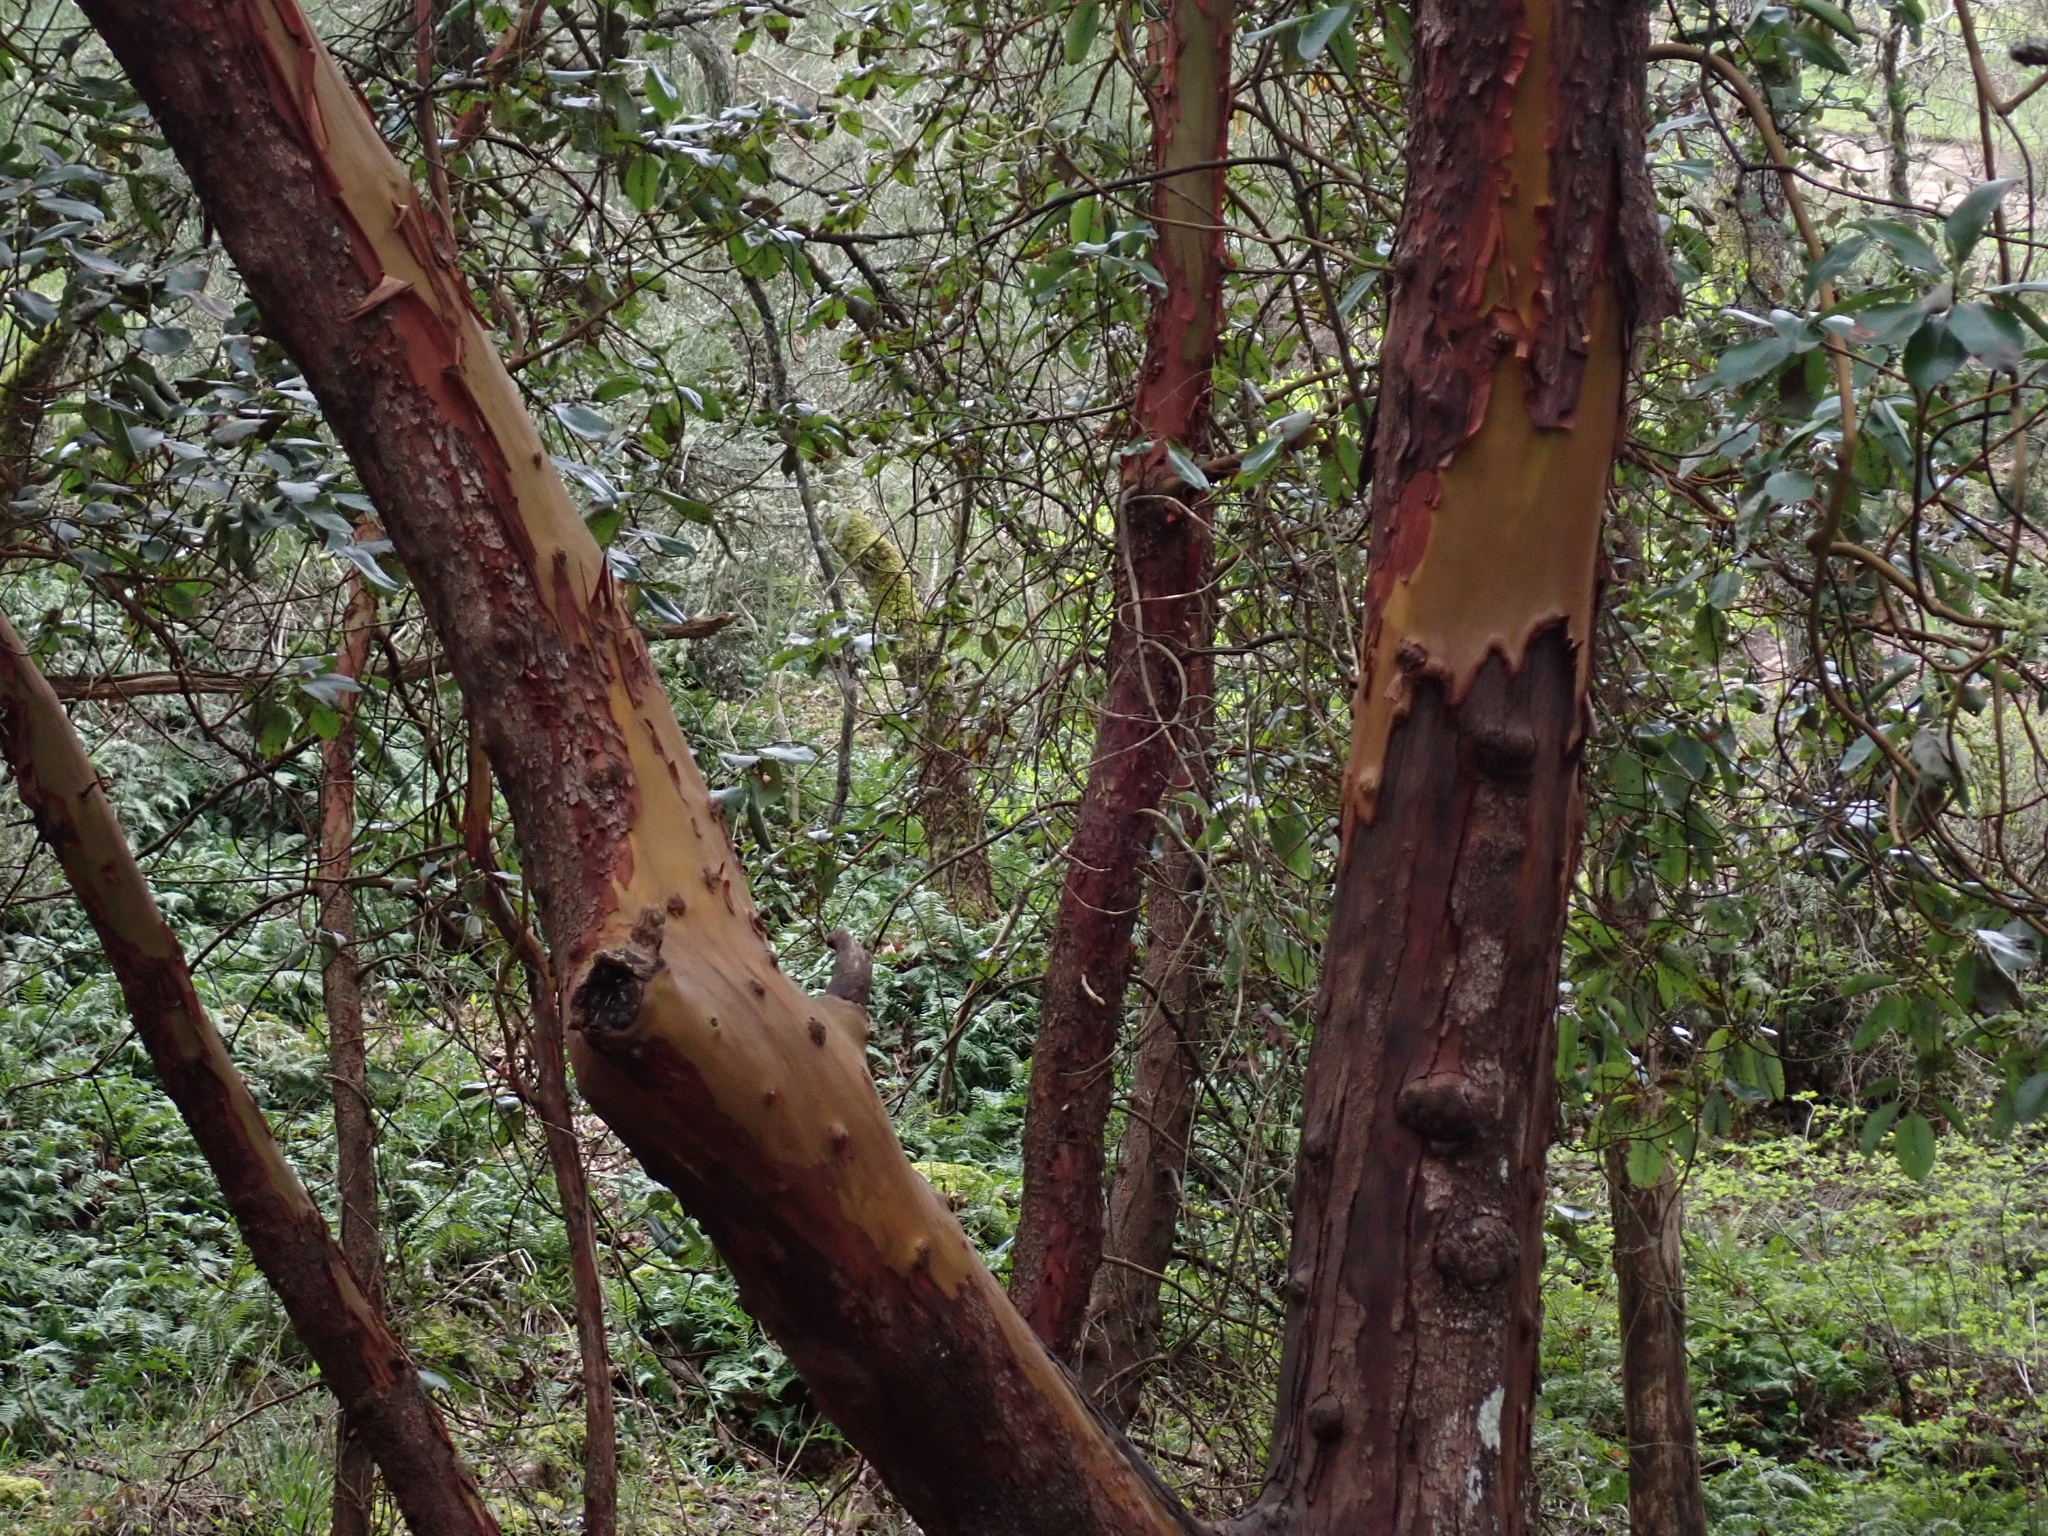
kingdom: Plantae
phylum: Tracheophyta
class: Magnoliopsida
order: Ericales
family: Ericaceae
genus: Arbutus
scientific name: Arbutus menziesii
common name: Pacific madrone
